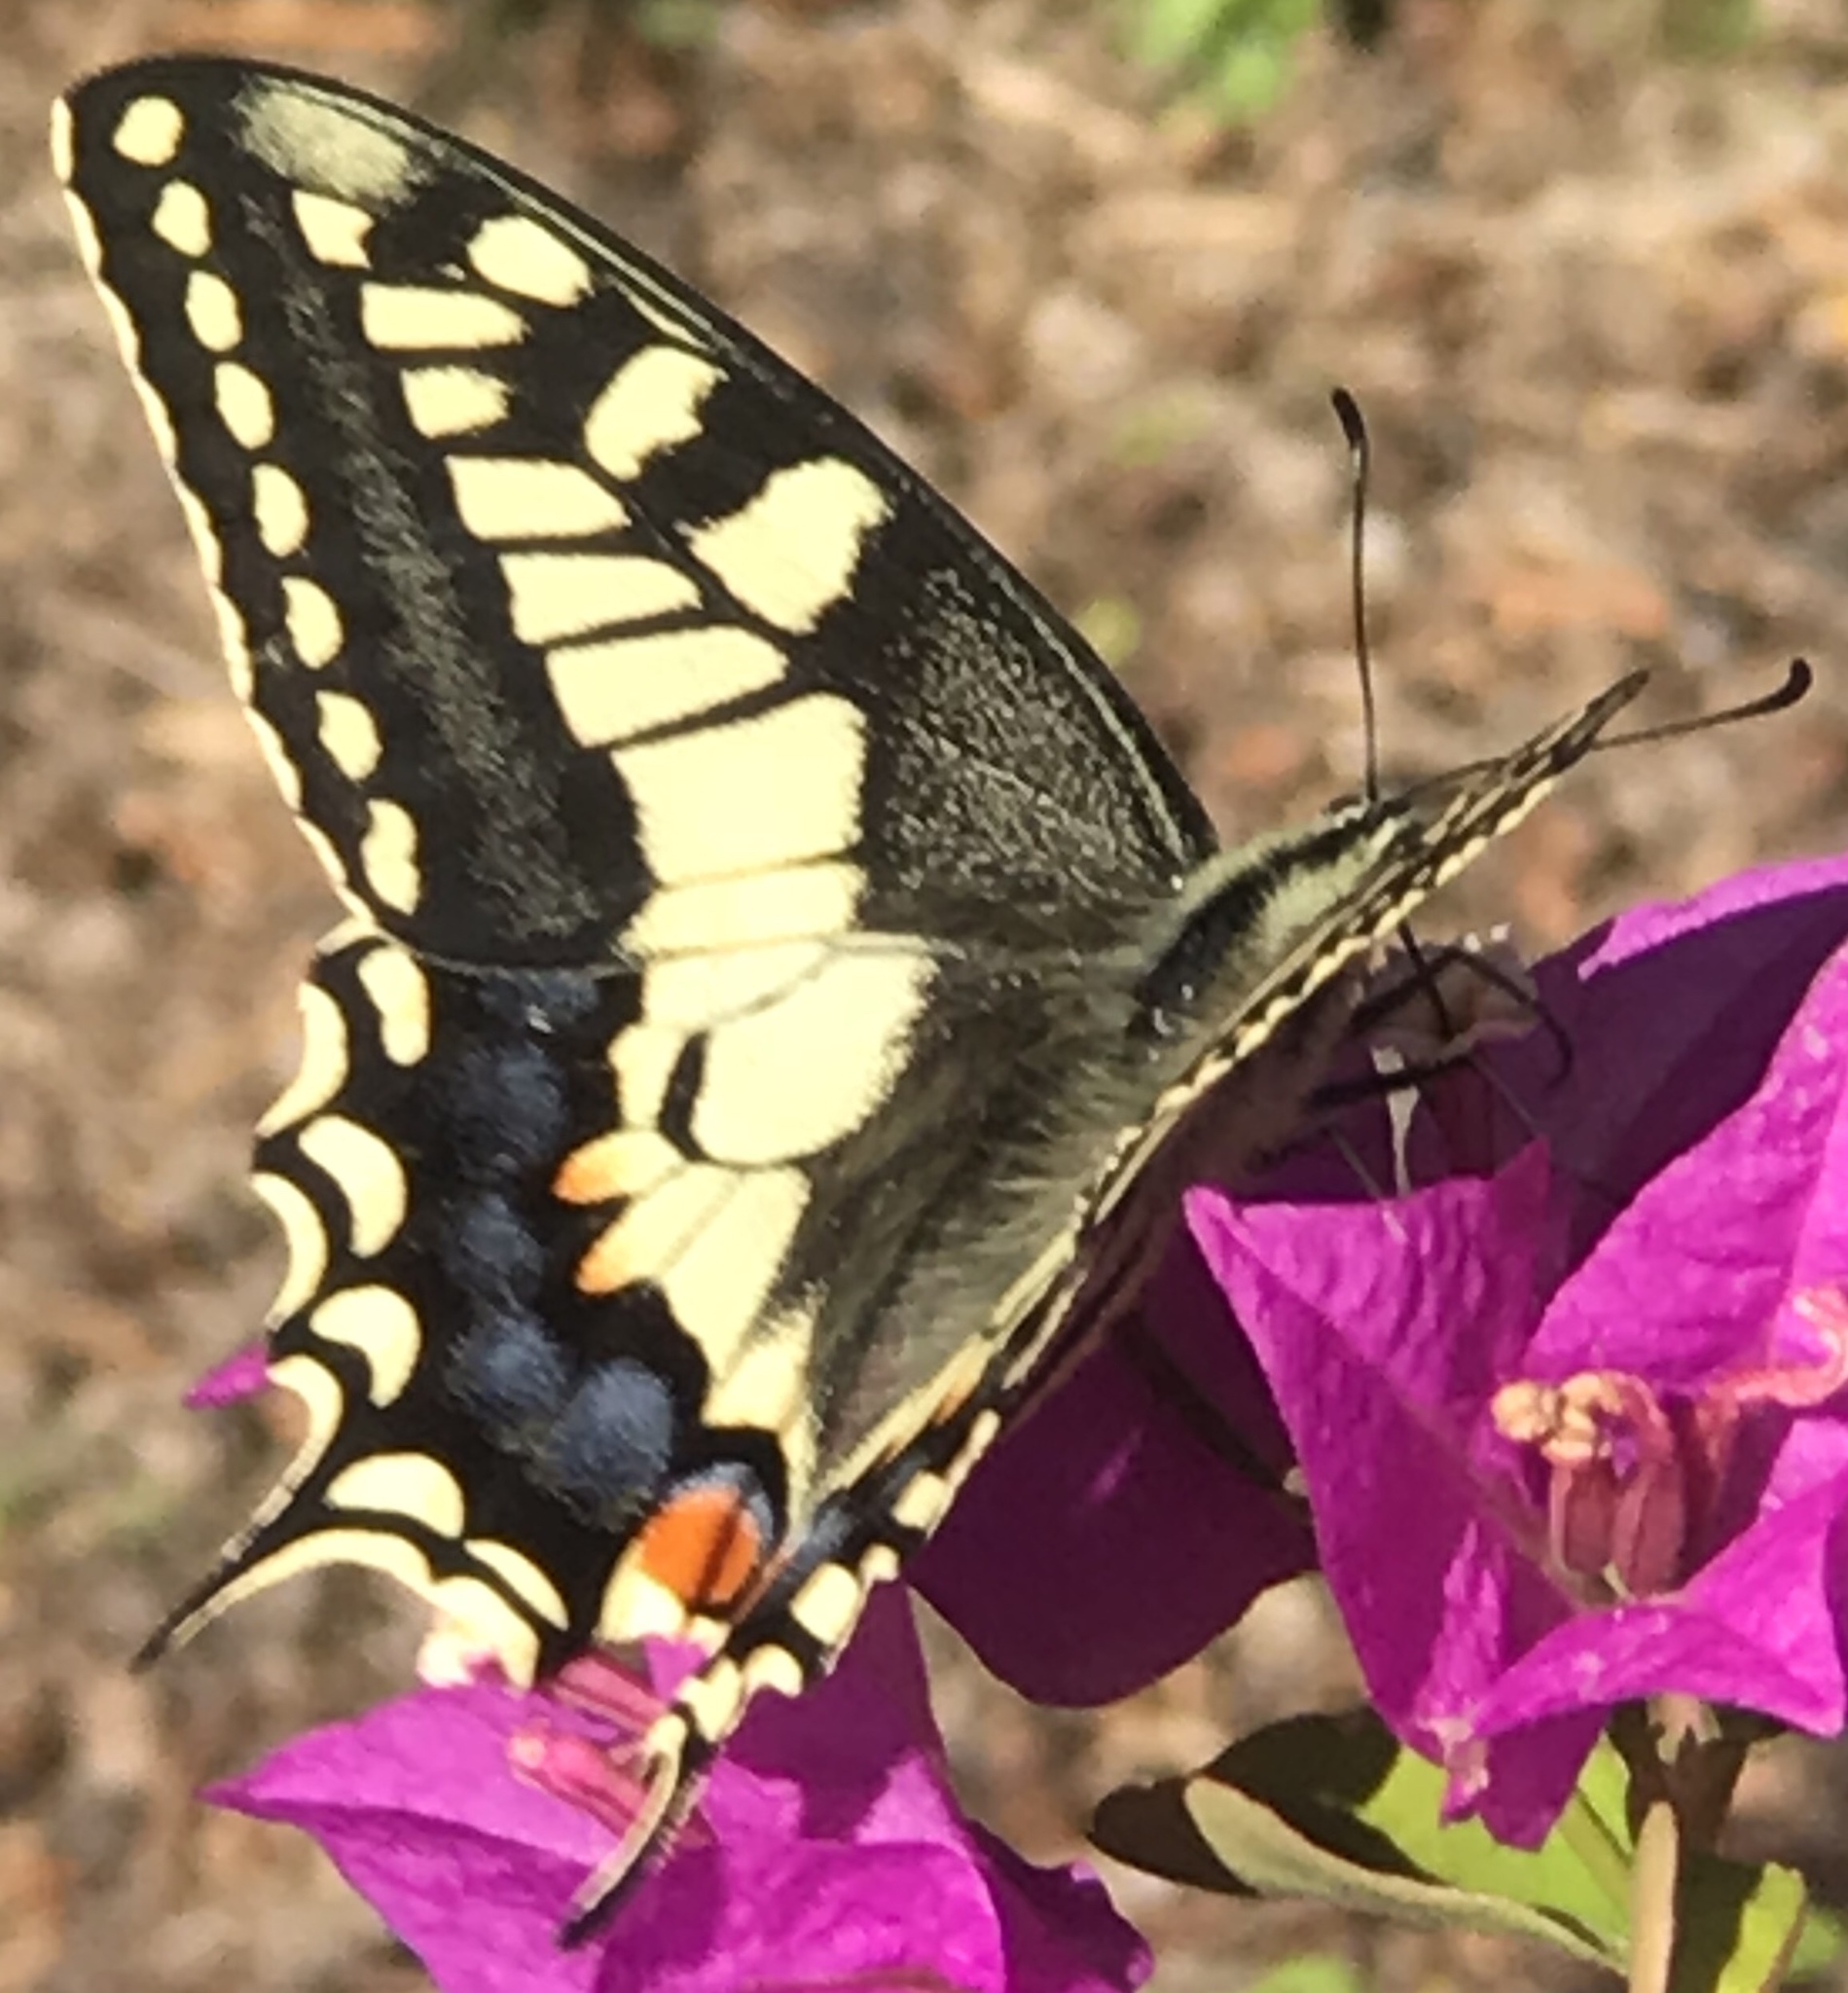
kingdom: Animalia
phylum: Arthropoda
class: Insecta
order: Lepidoptera
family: Papilionidae
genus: Papilio
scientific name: Papilio machaon
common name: Swallowtail
